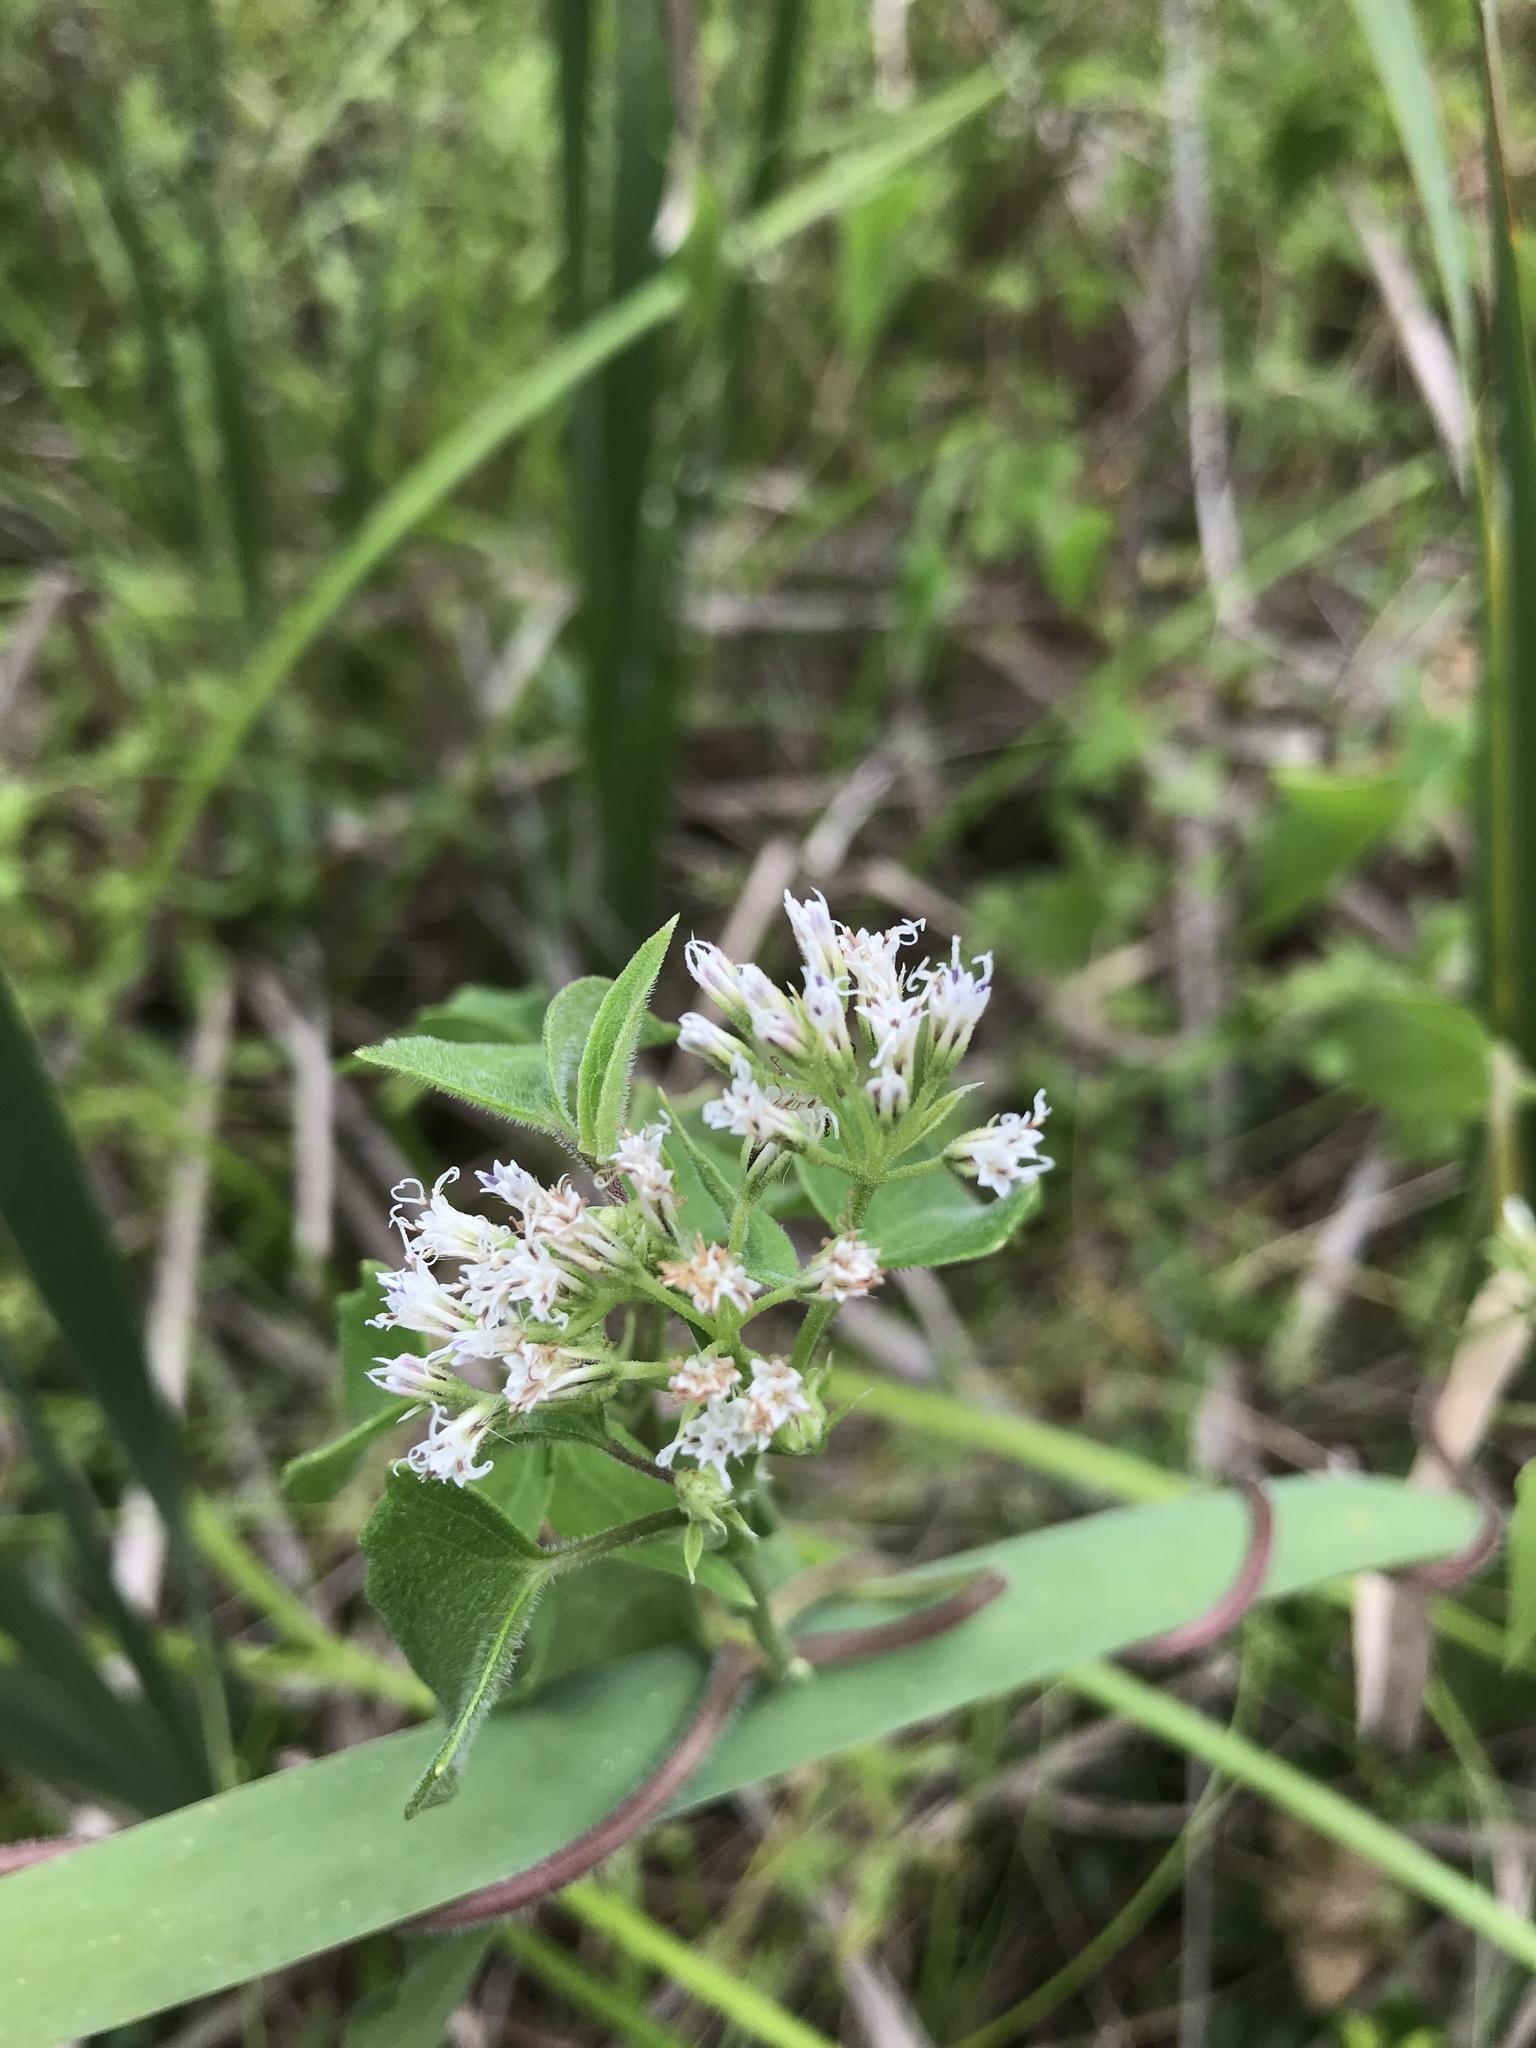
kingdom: Plantae
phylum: Tracheophyta
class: Magnoliopsida
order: Asterales
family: Asteraceae
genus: Mikania
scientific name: Mikania scandens
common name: Climbing hempvine
